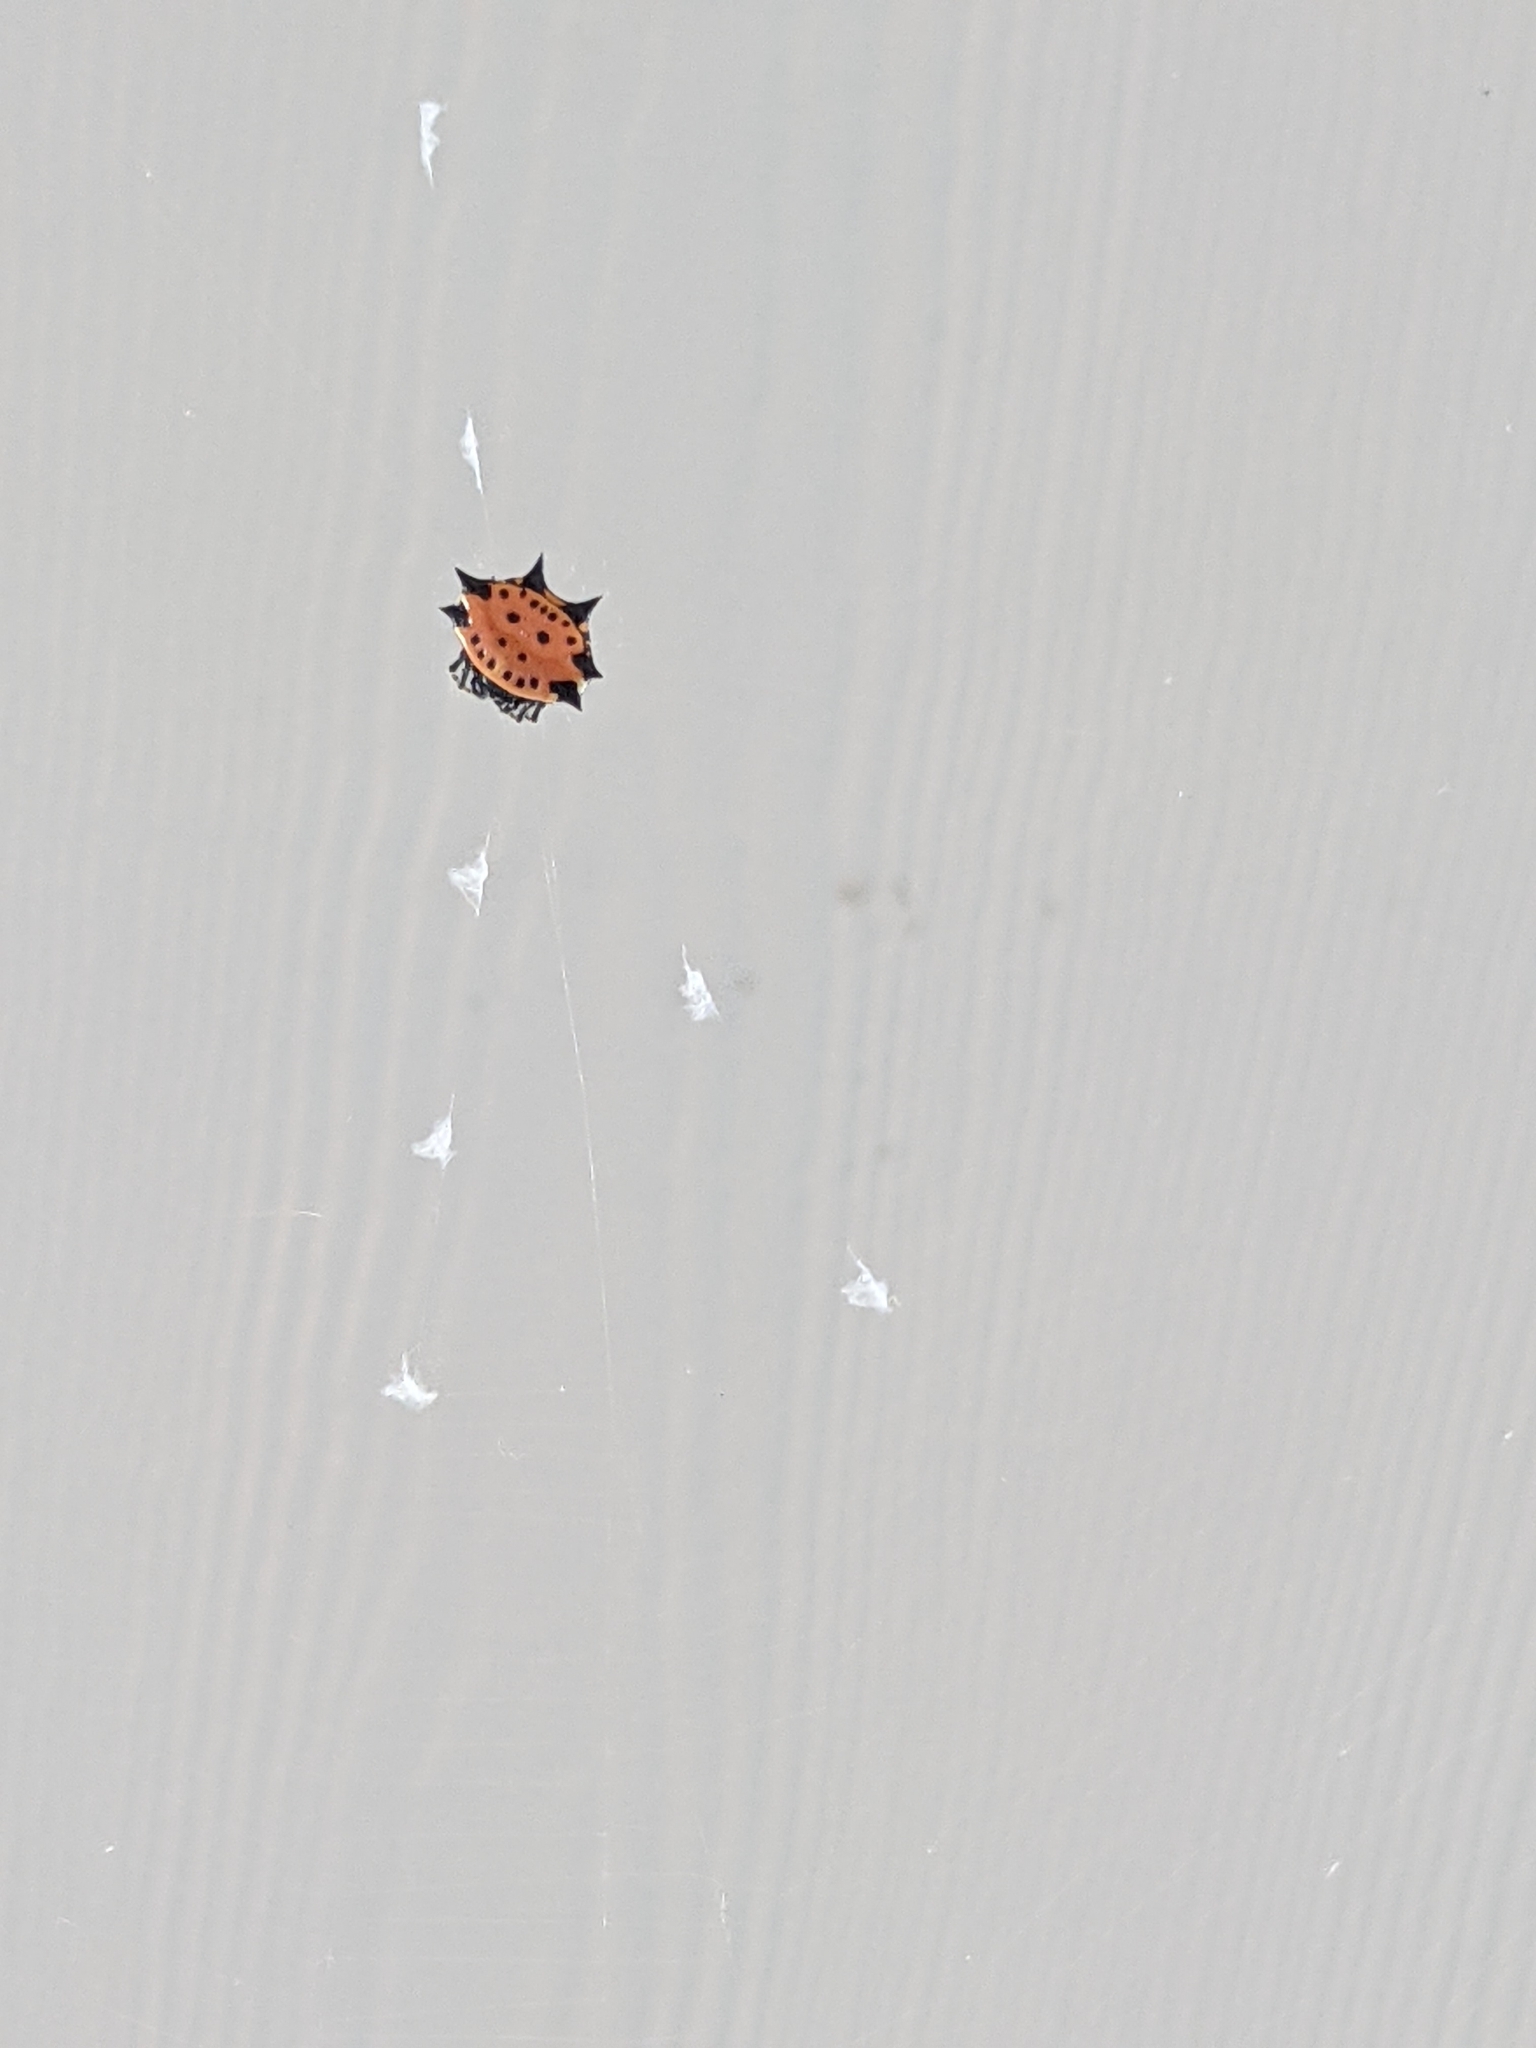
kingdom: Animalia
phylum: Arthropoda
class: Arachnida
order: Araneae
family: Araneidae
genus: Gasteracantha
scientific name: Gasteracantha cancriformis
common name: Orb weavers
